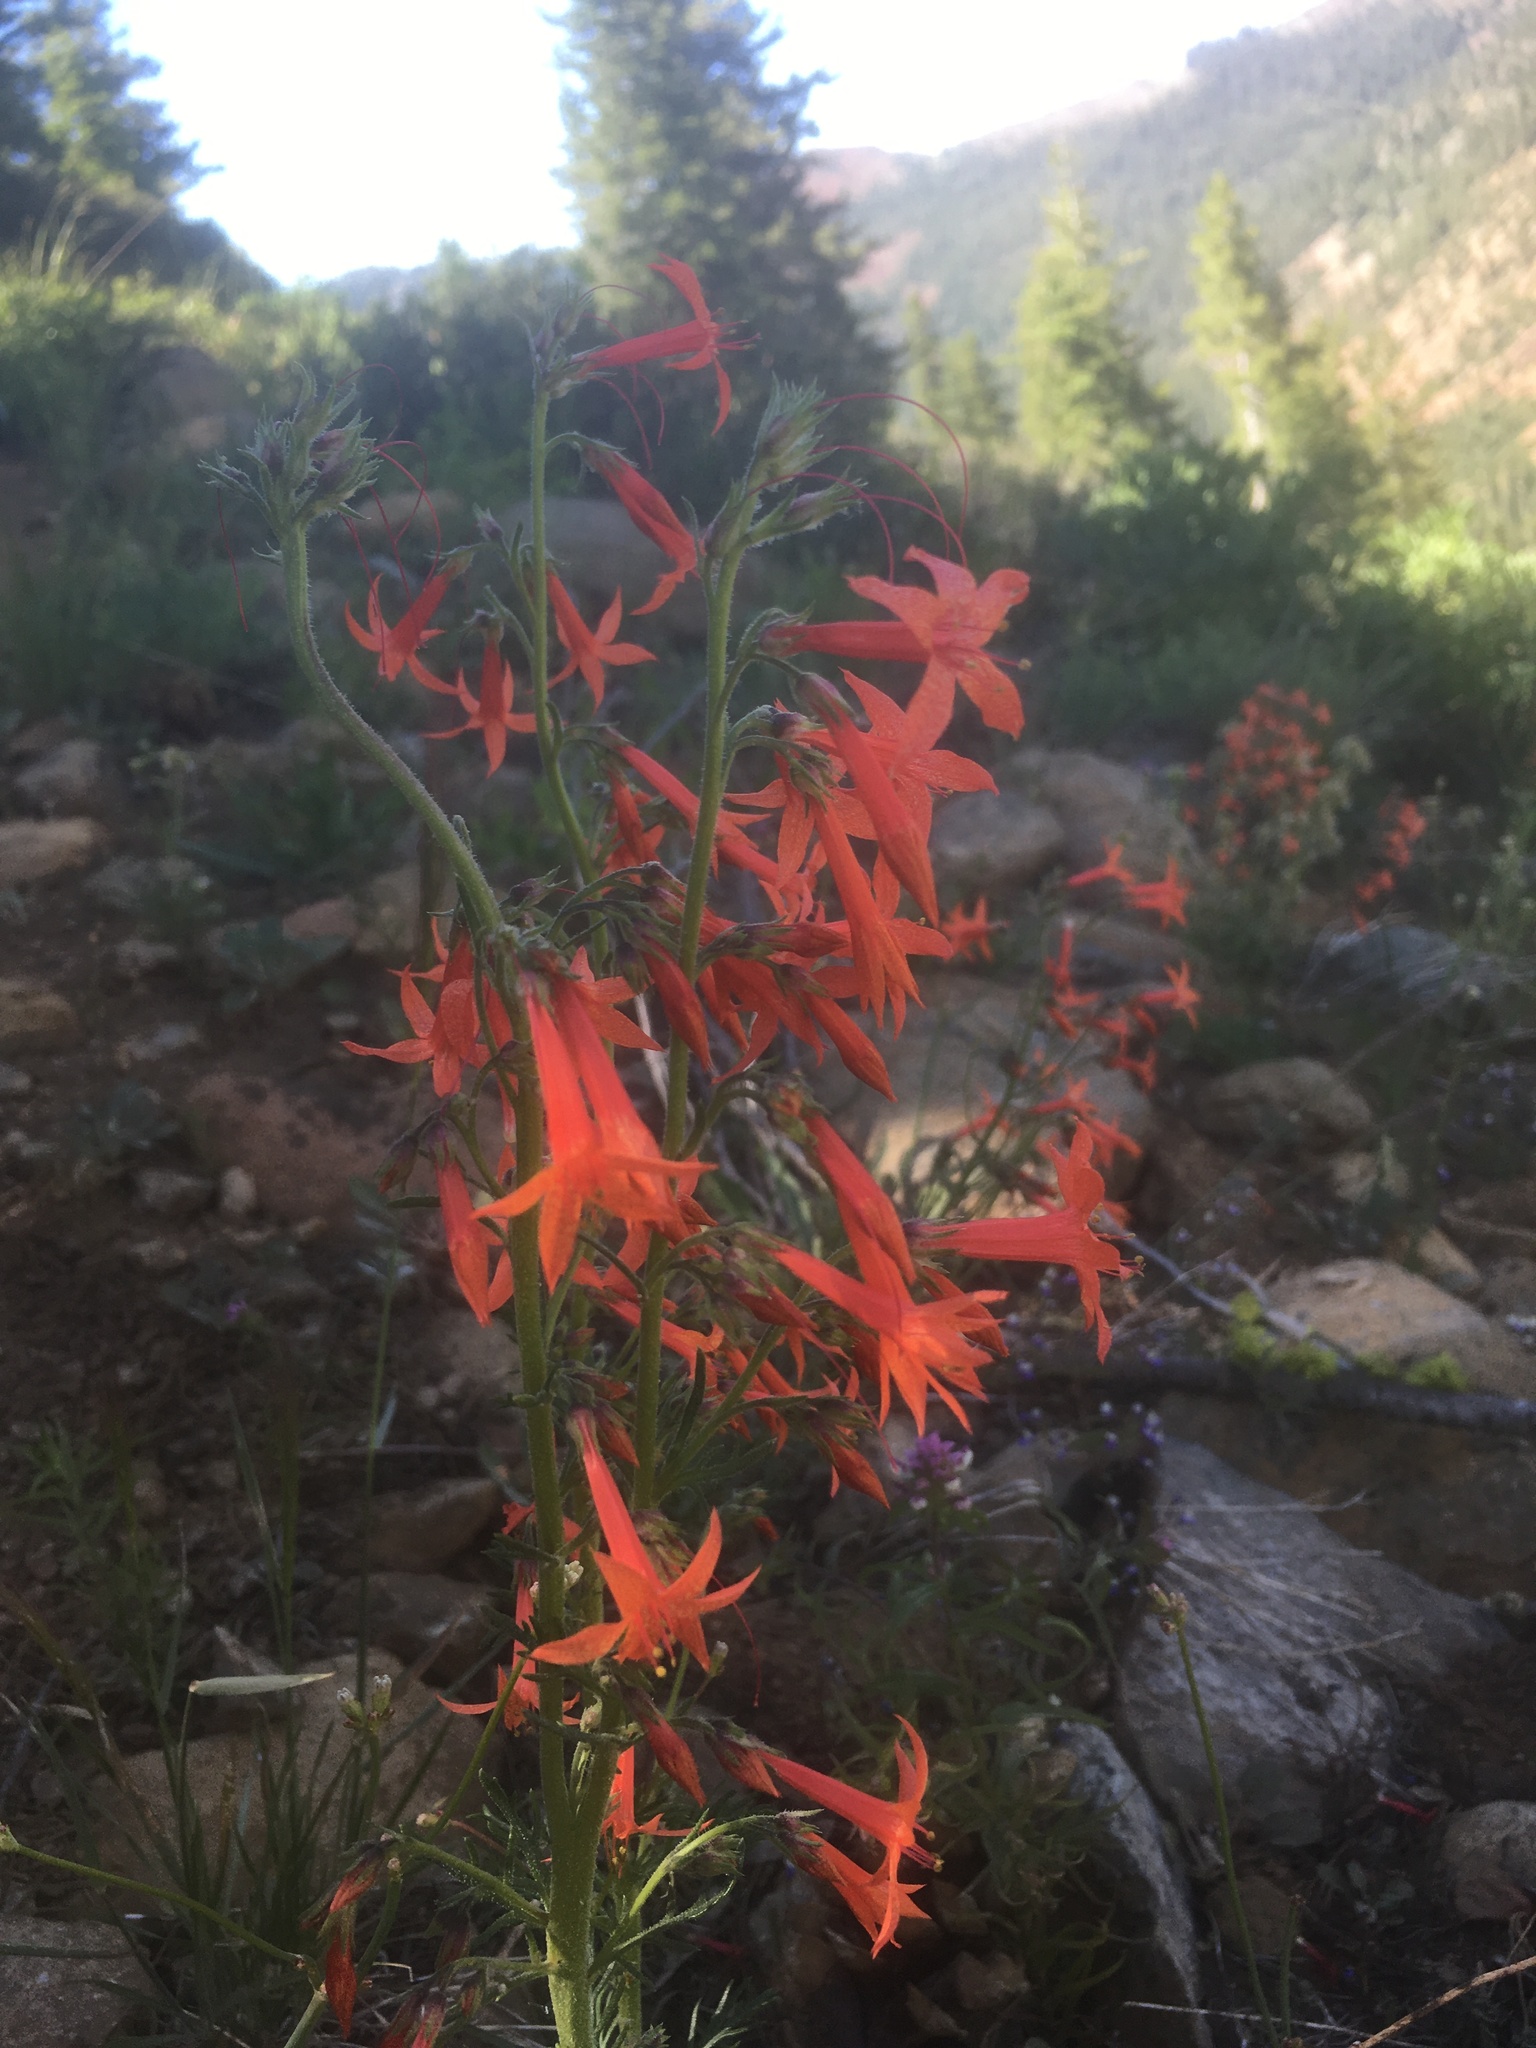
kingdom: Plantae
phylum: Tracheophyta
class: Magnoliopsida
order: Ericales
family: Polemoniaceae
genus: Ipomopsis
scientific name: Ipomopsis aggregata
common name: Scarlet gilia
